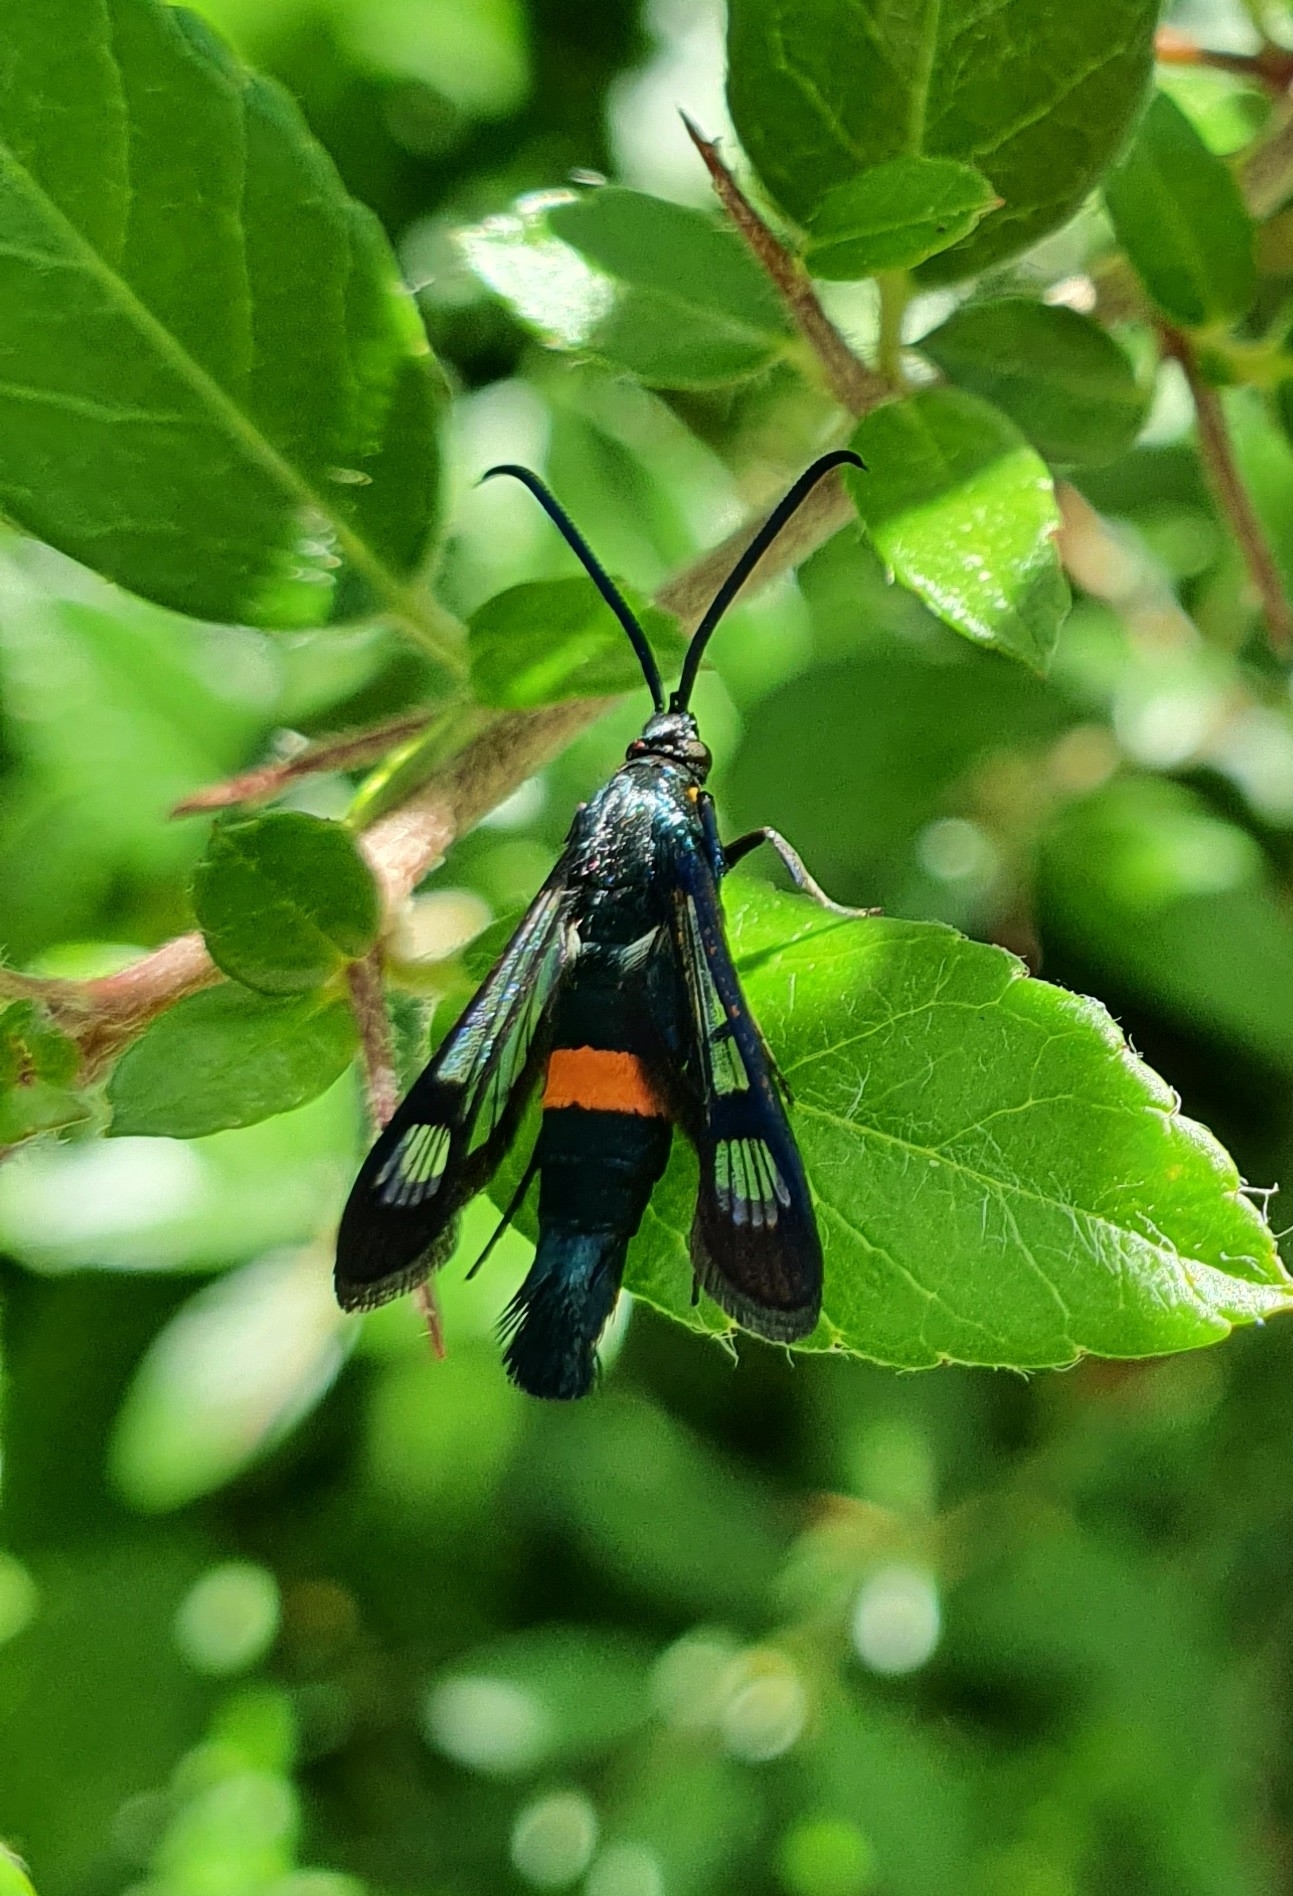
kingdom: Animalia
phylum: Arthropoda
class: Insecta
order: Lepidoptera
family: Sesiidae
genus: Synanthedon
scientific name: Synanthedon myopaeformis
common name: Red-belted clearwing
